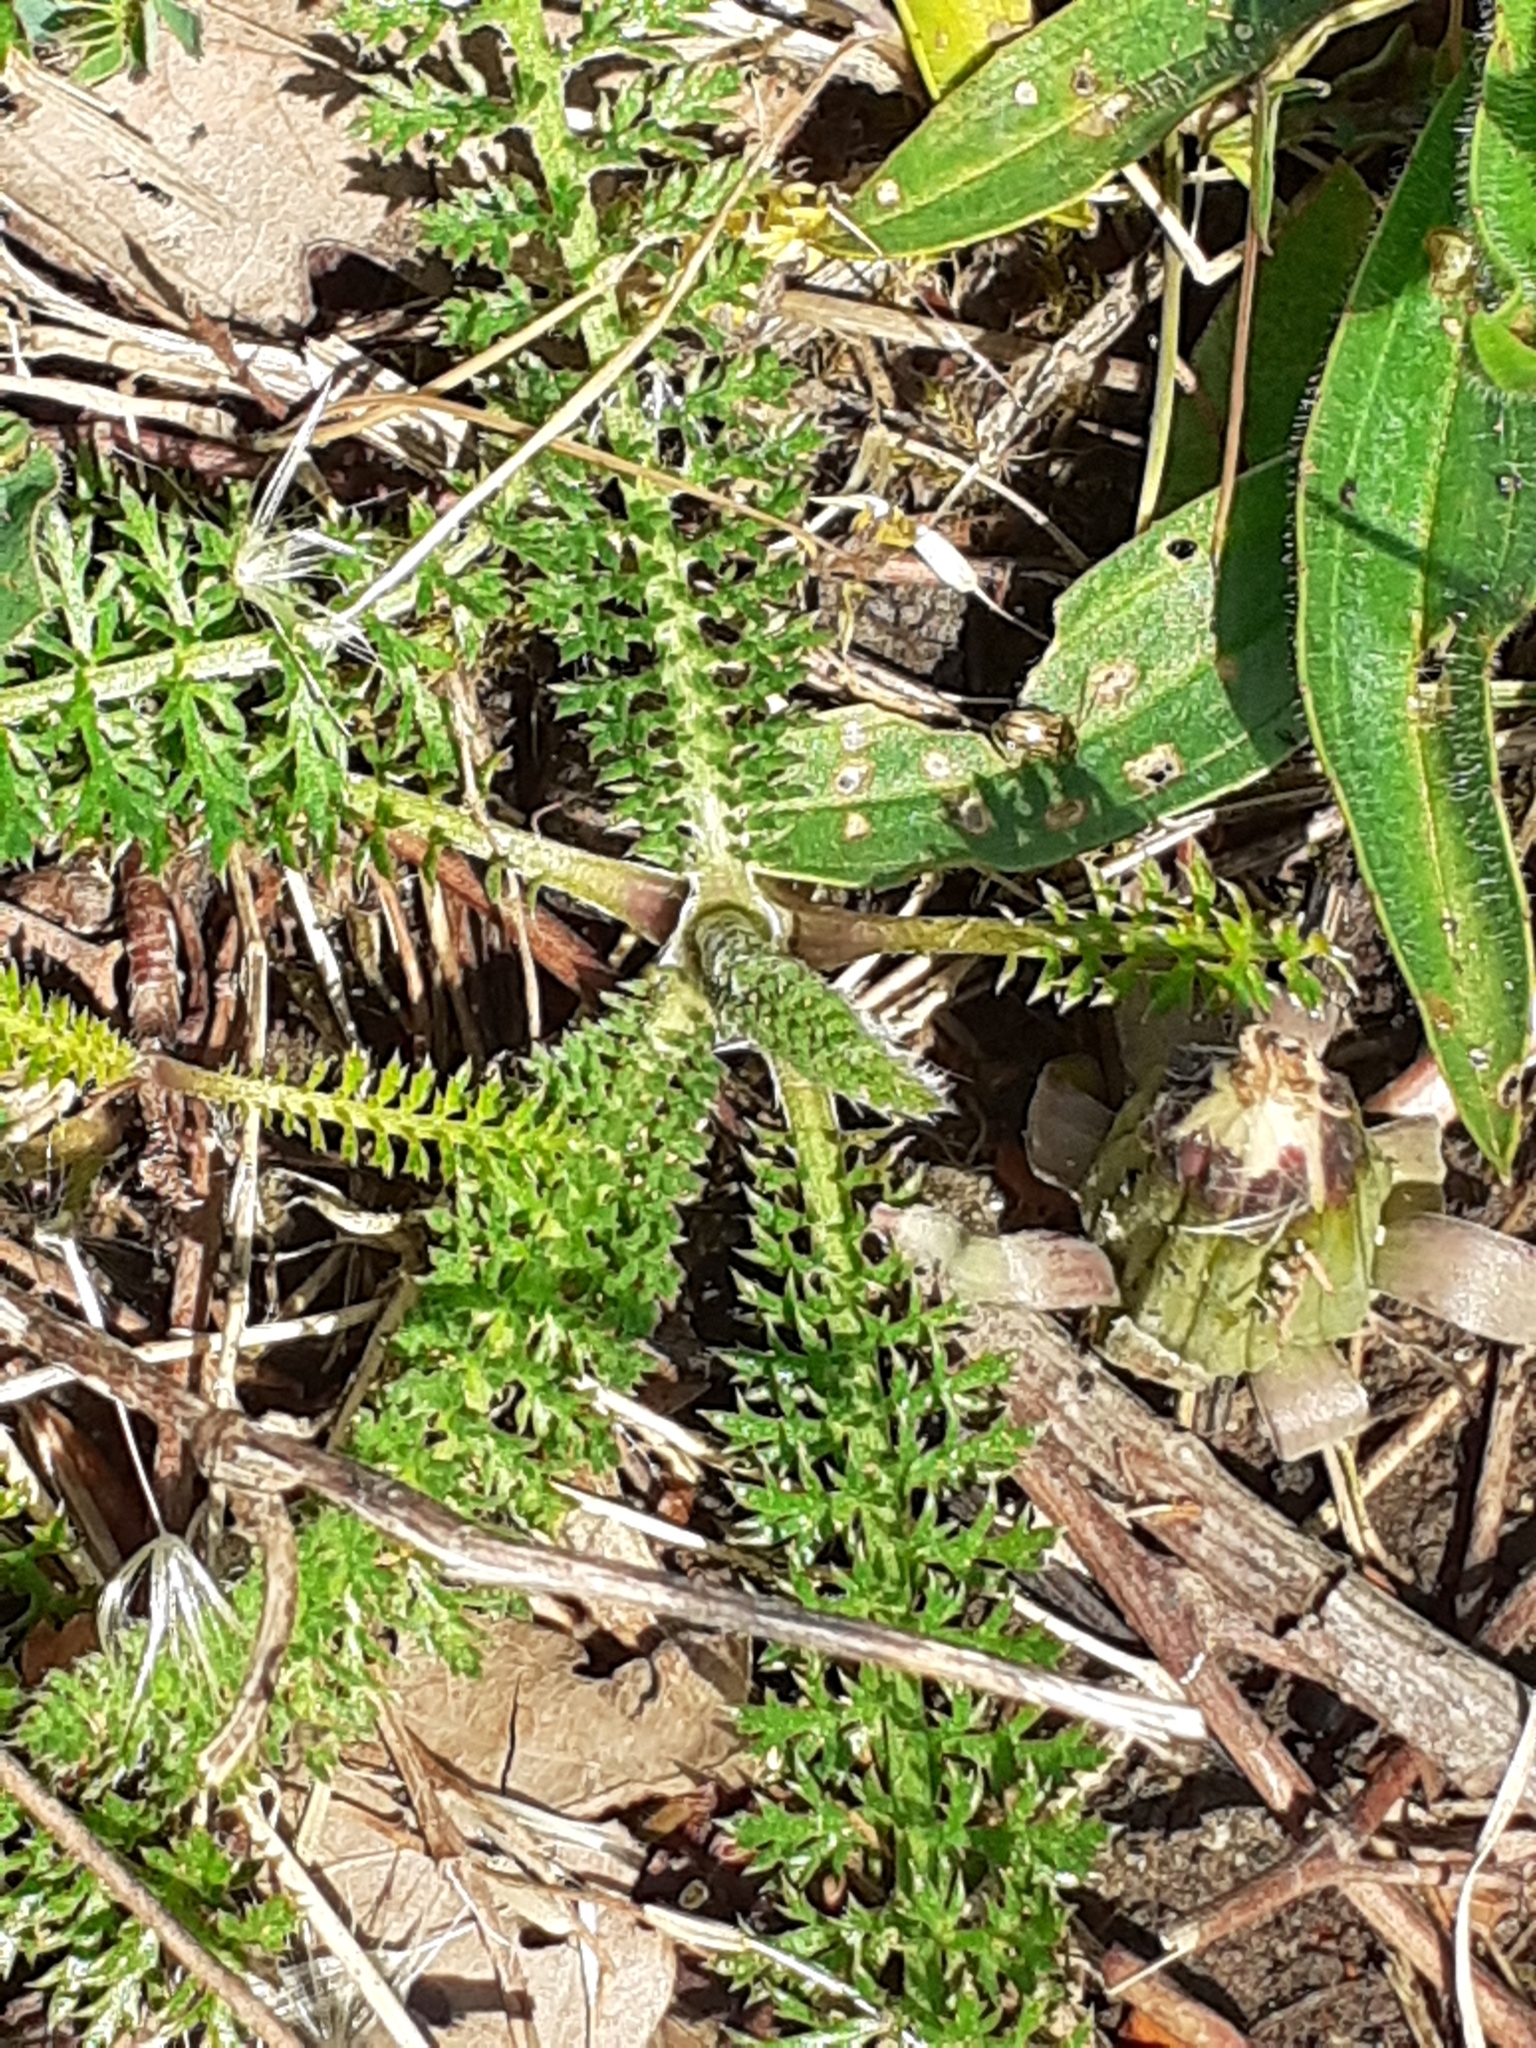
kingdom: Plantae
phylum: Tracheophyta
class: Magnoliopsida
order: Asterales
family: Asteraceae
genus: Achillea
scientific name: Achillea millefolium
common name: Yarrow
